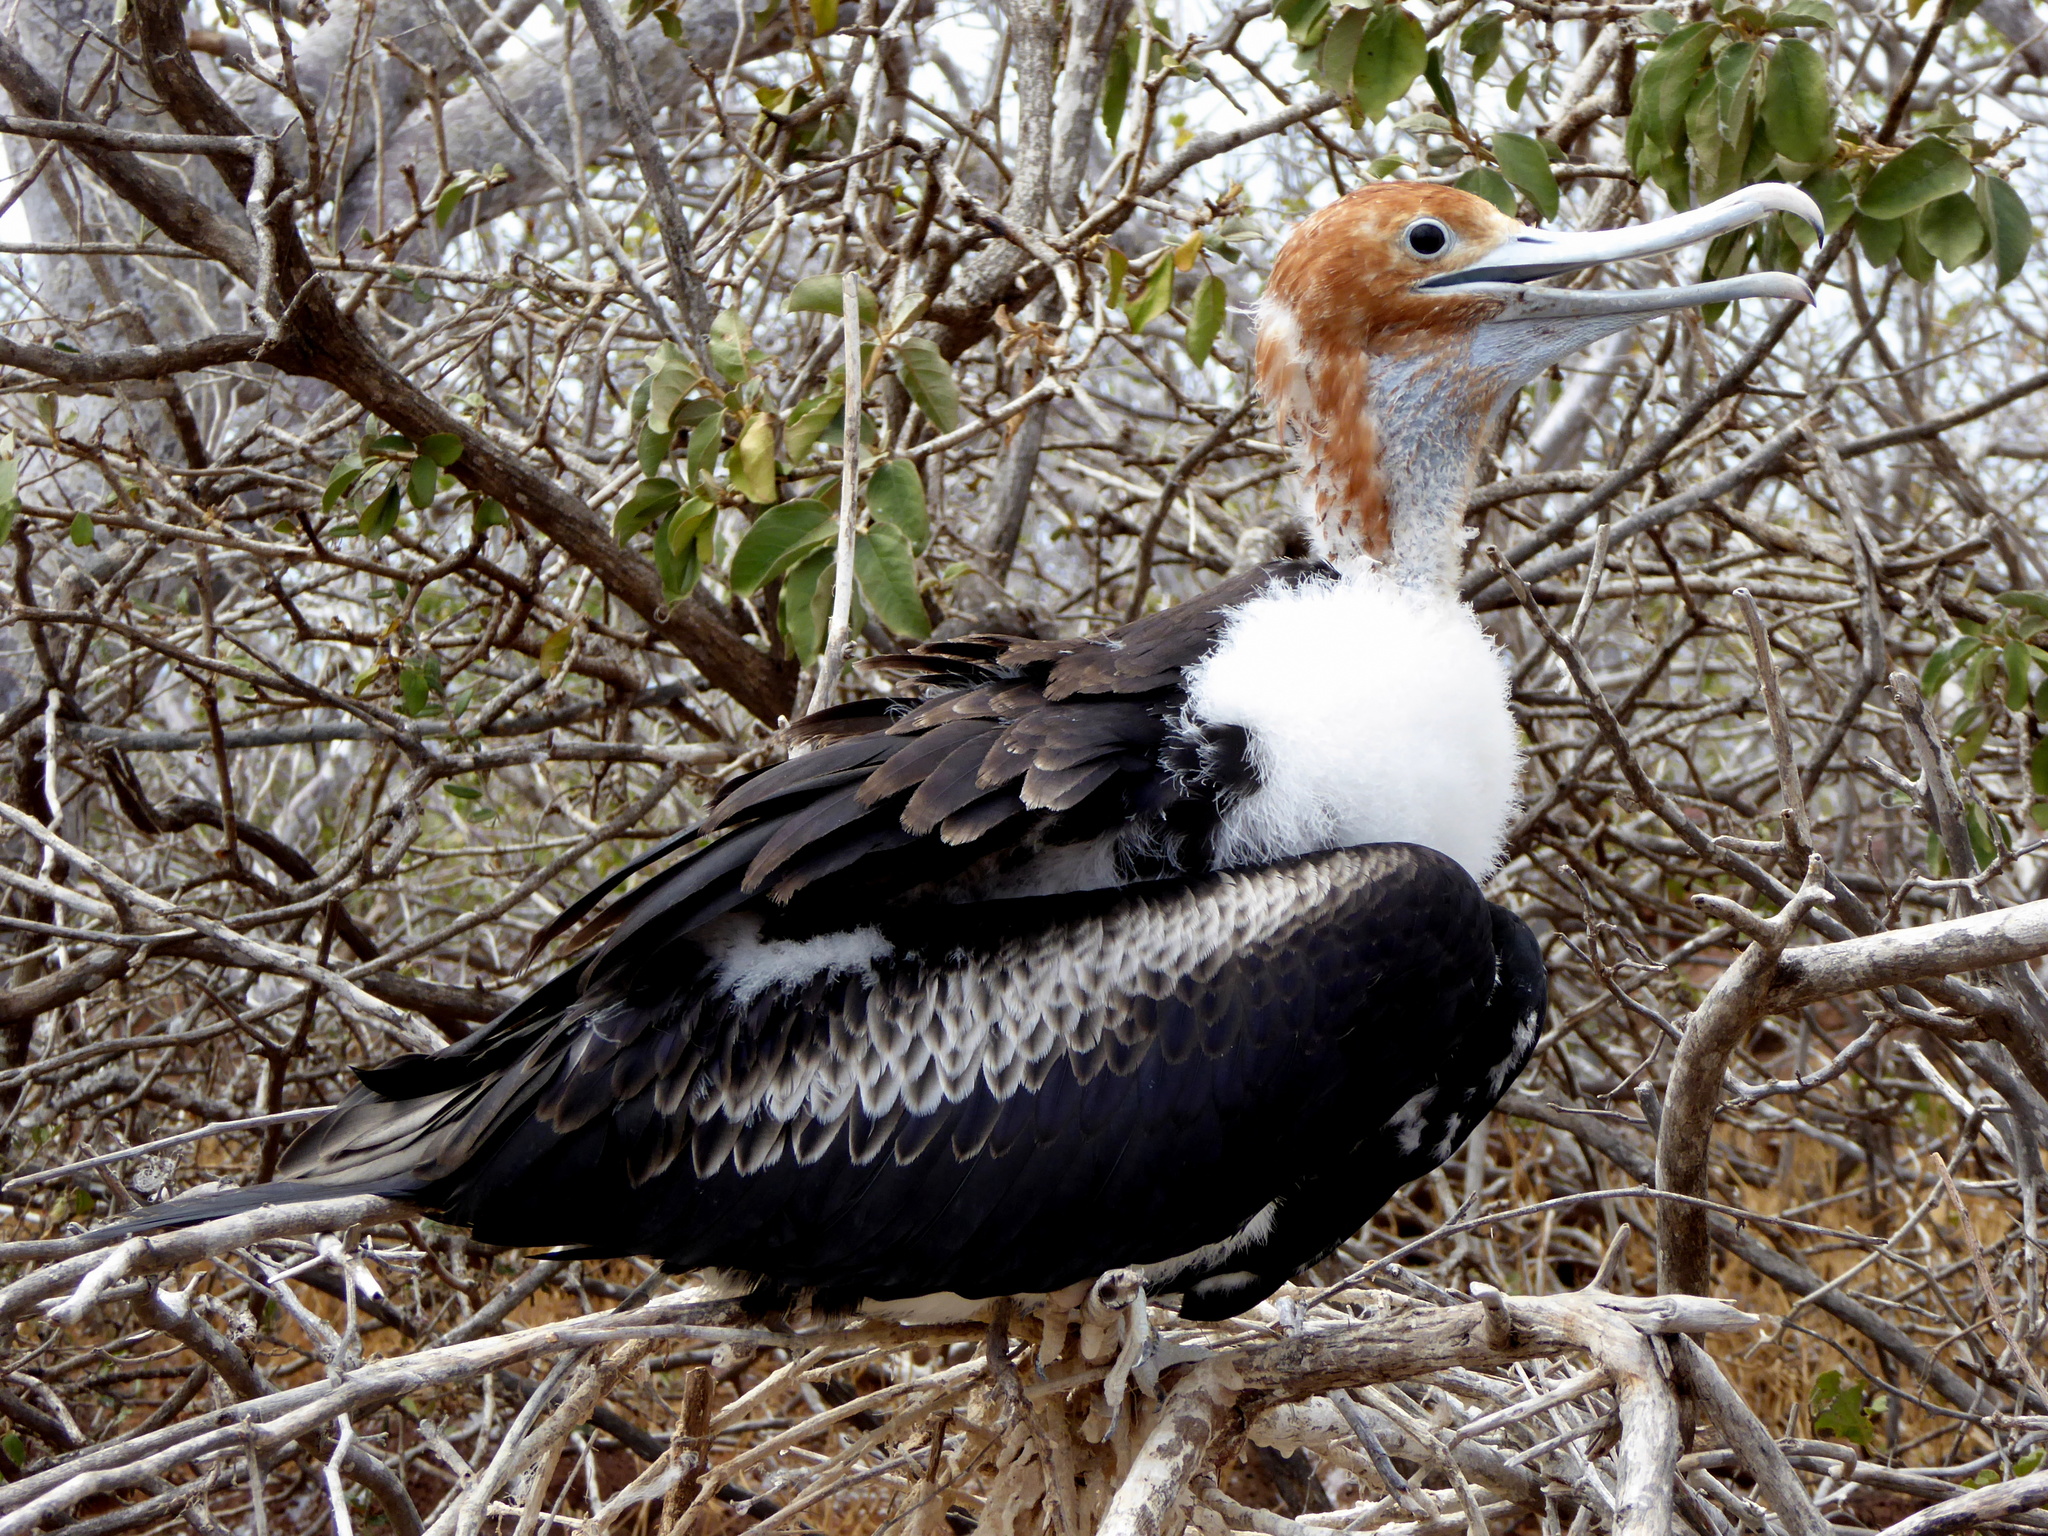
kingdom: Animalia
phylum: Chordata
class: Aves
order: Suliformes
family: Fregatidae
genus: Fregata
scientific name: Fregata minor
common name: Great frigatebird
